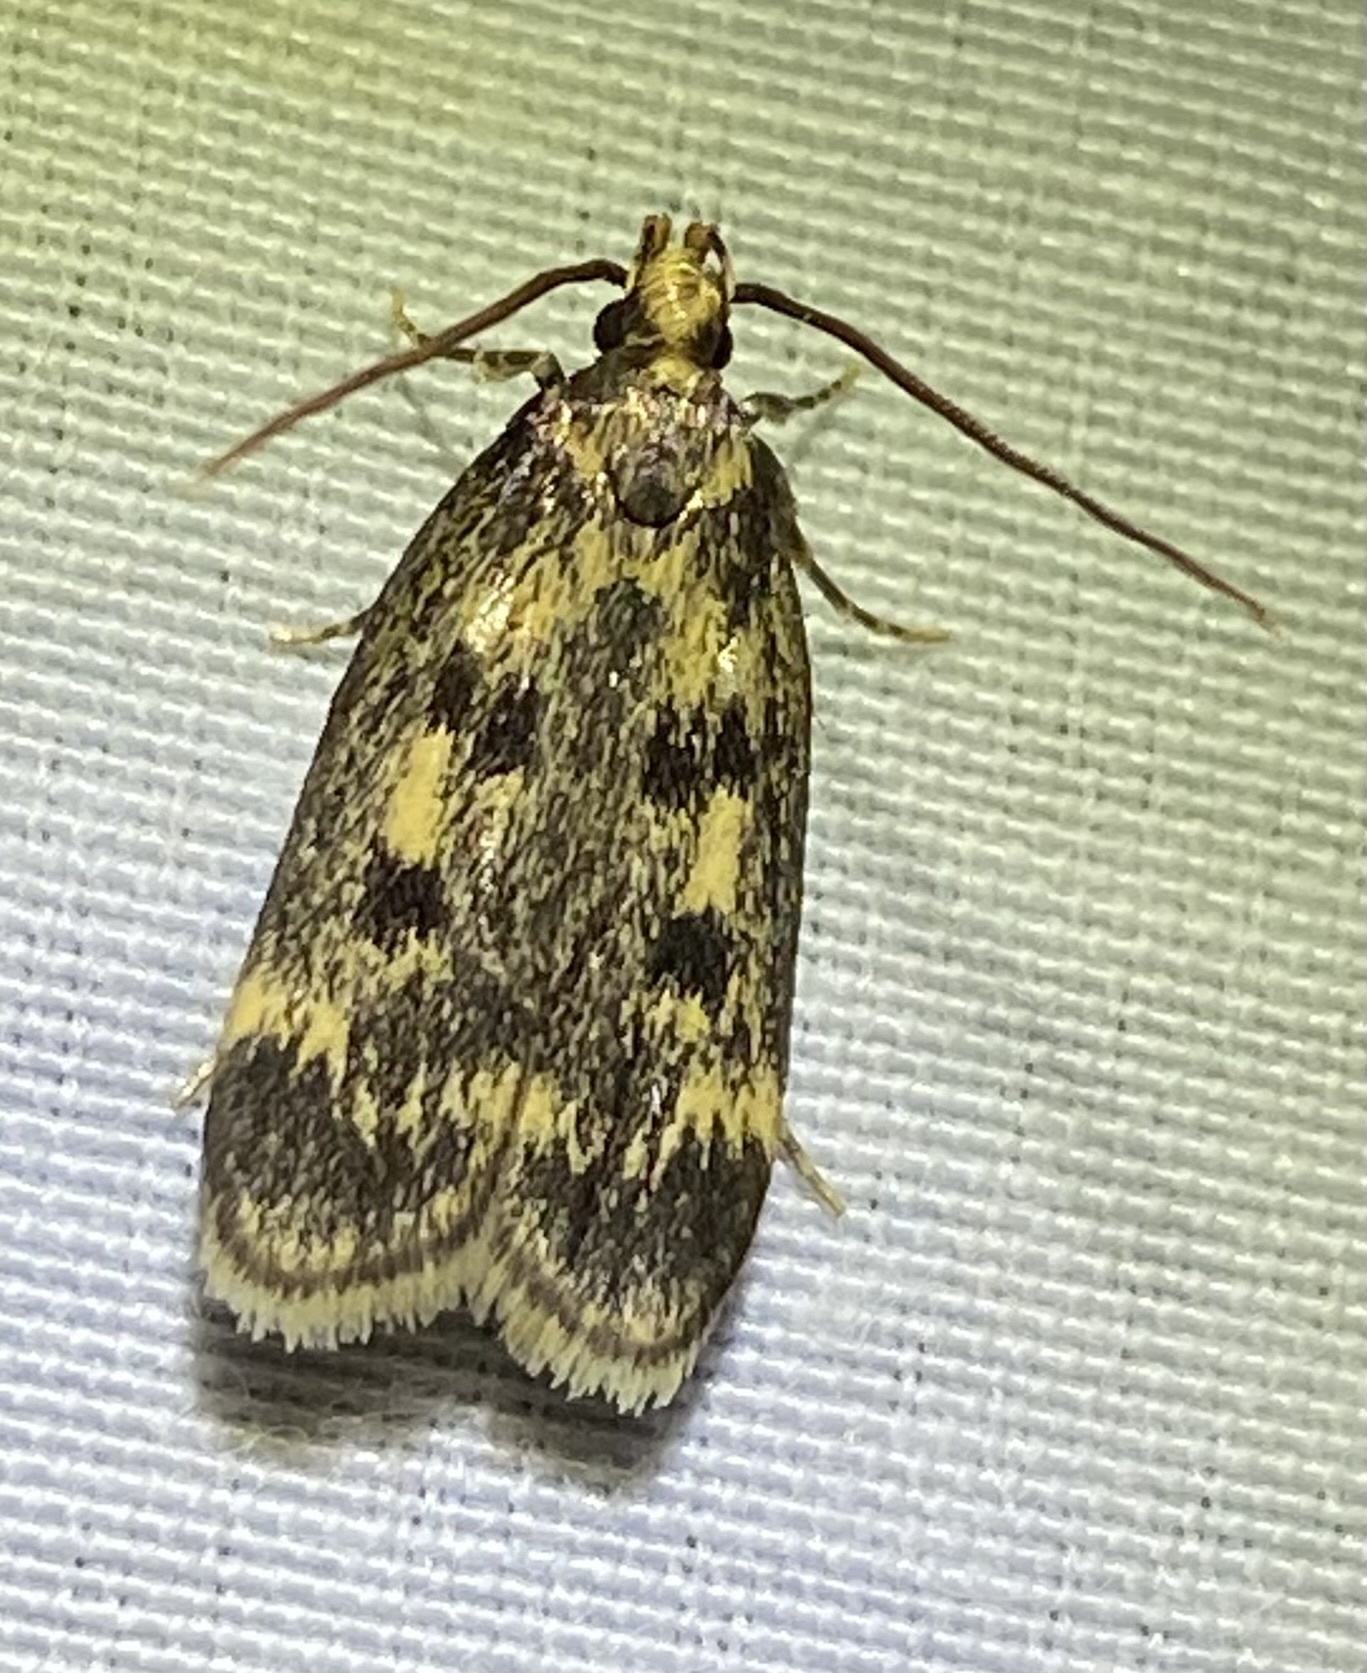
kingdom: Animalia
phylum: Arthropoda
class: Insecta
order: Lepidoptera
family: Lecithoceridae
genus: Martyringa
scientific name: Martyringa latipennis
